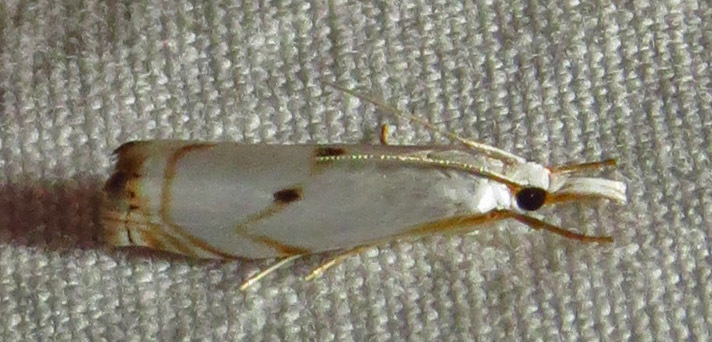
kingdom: Animalia
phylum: Arthropoda
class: Insecta
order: Lepidoptera
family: Crambidae
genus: Microcrambus
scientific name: Microcrambus biguttellus
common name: Gold-stripe grass-veneer moth
